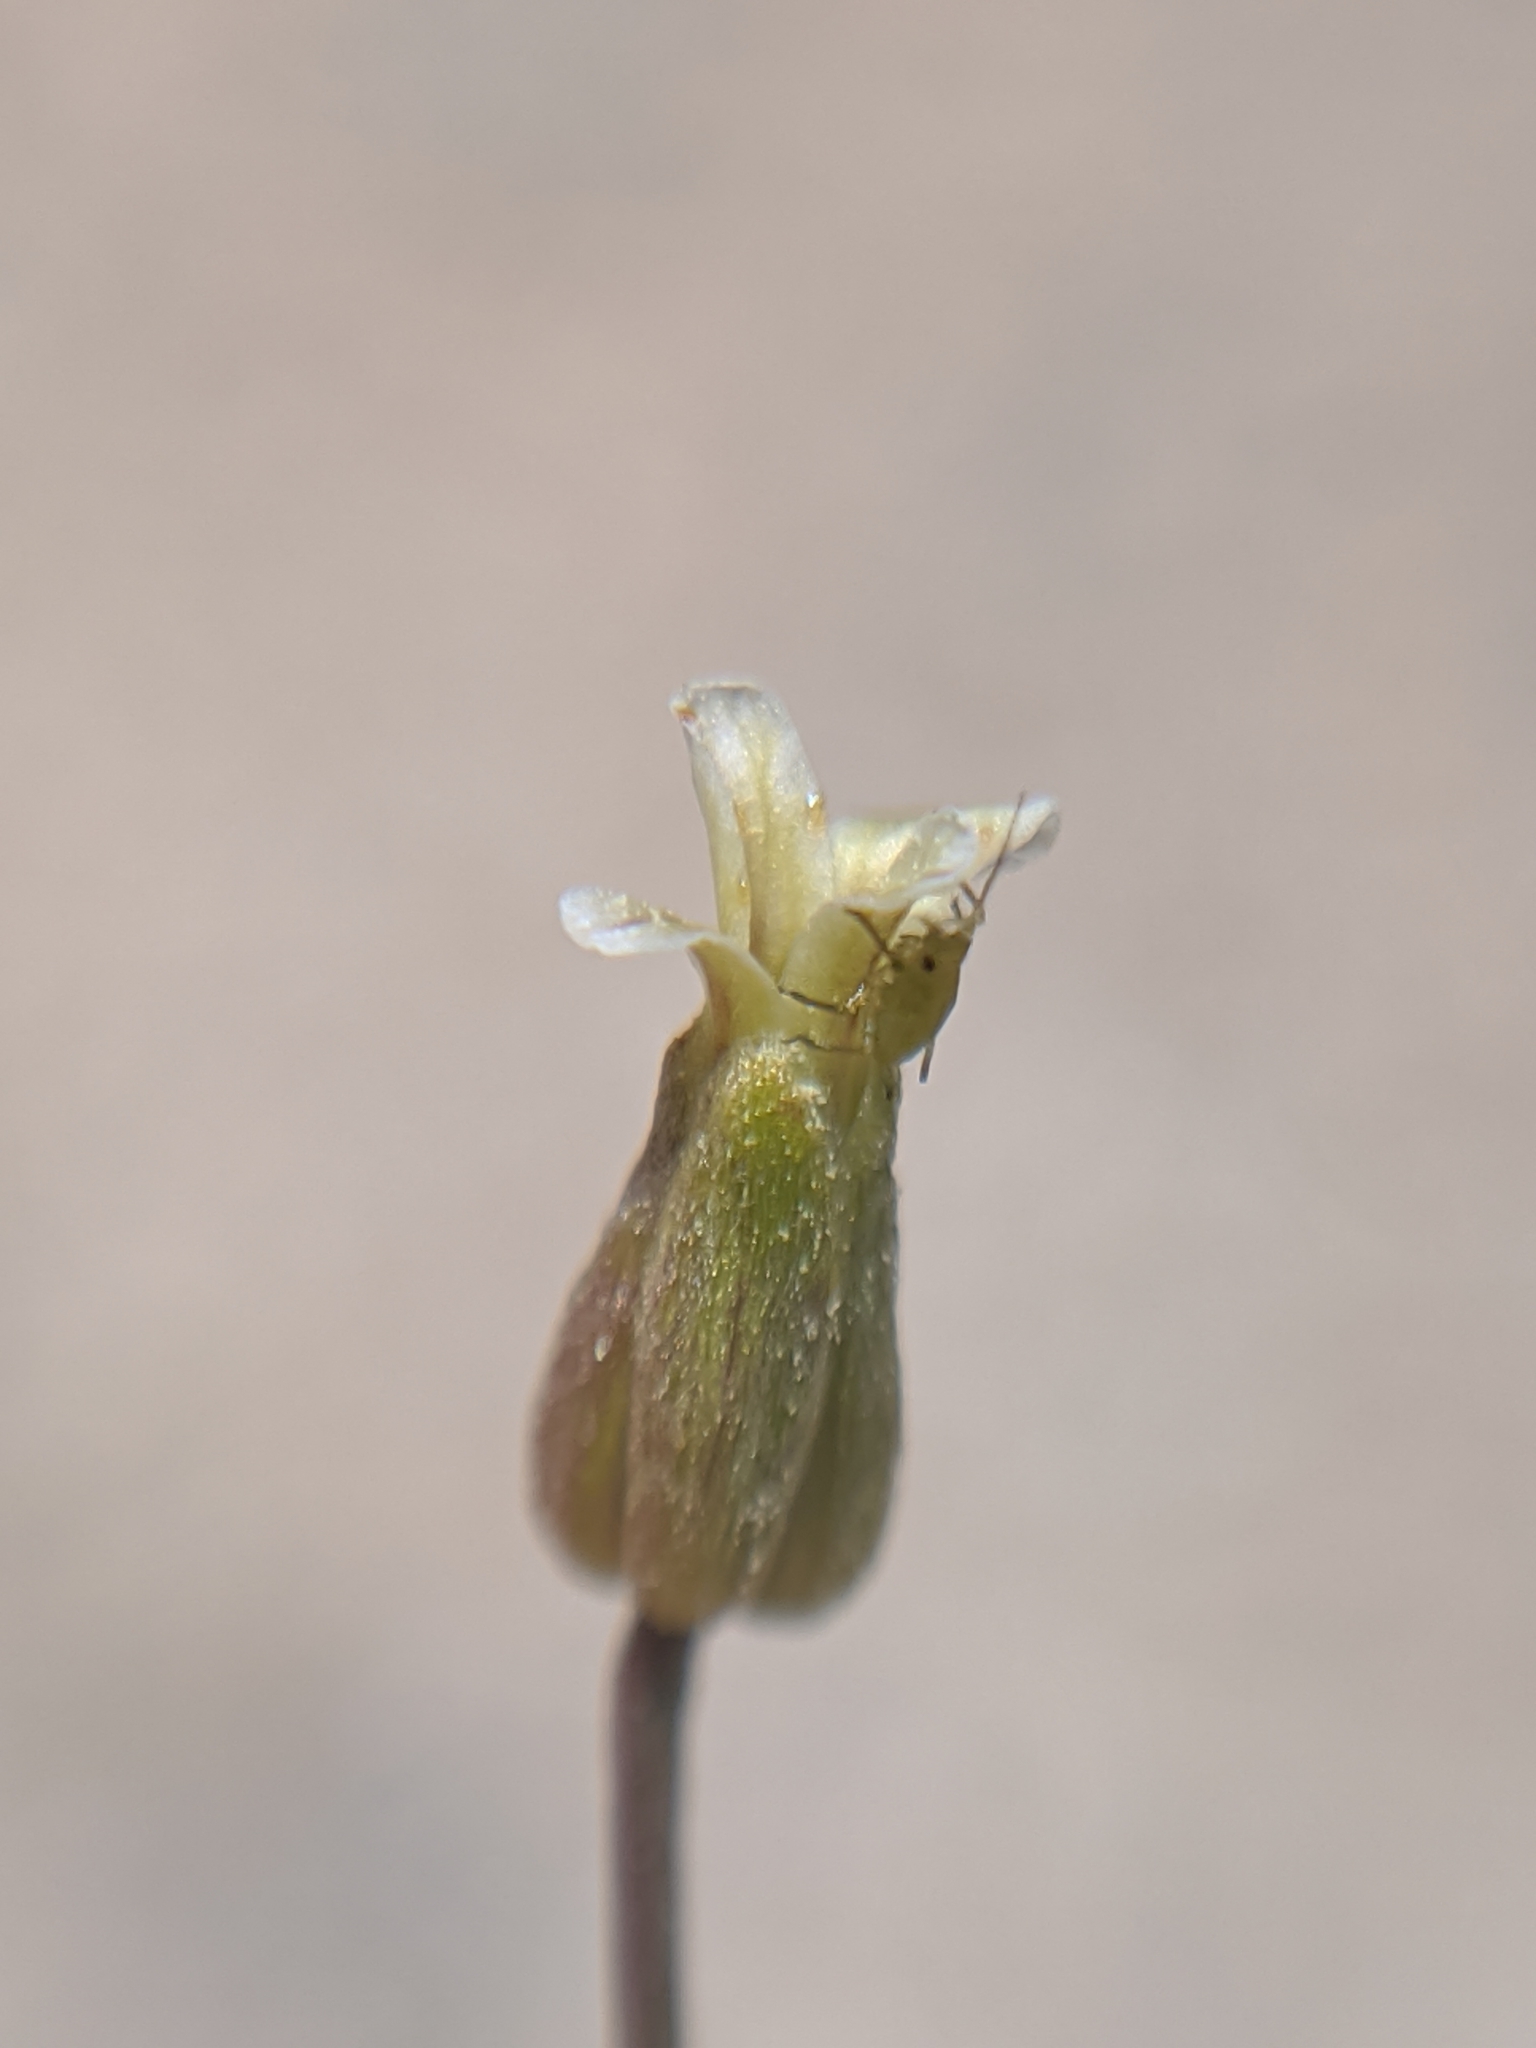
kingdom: Plantae
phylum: Tracheophyta
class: Magnoliopsida
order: Brassicales
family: Brassicaceae
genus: Streptanthus
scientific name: Streptanthus cooperi
